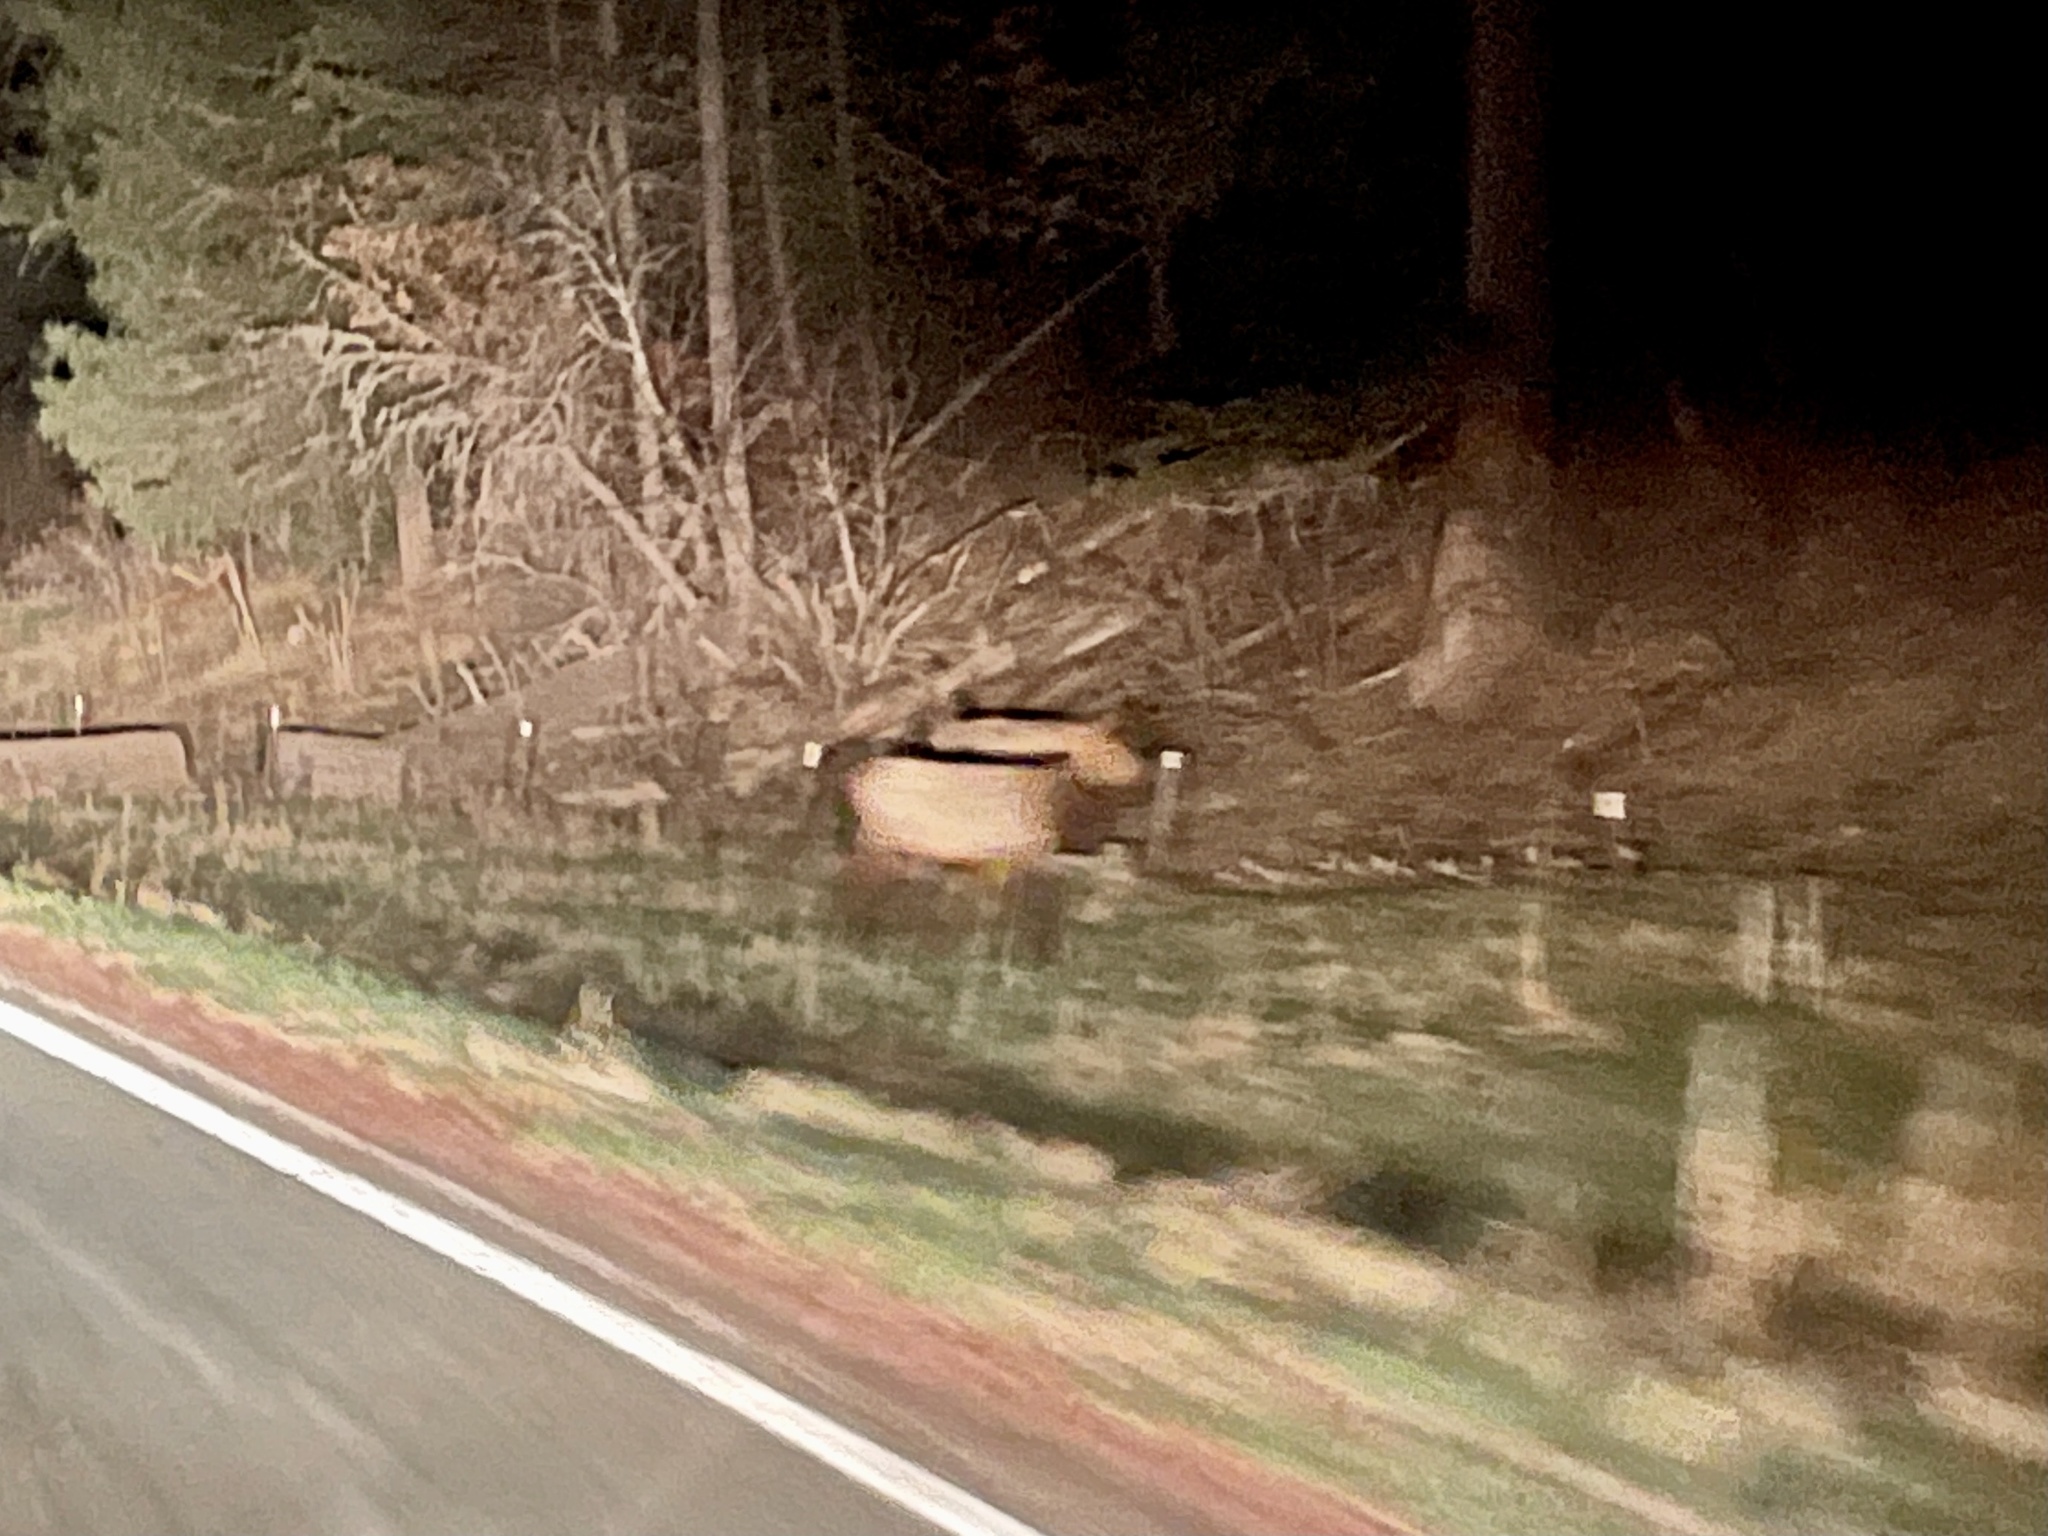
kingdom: Animalia
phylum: Chordata
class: Mammalia
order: Artiodactyla
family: Cervidae
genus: Cervus
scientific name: Cervus elaphus
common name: Red deer
